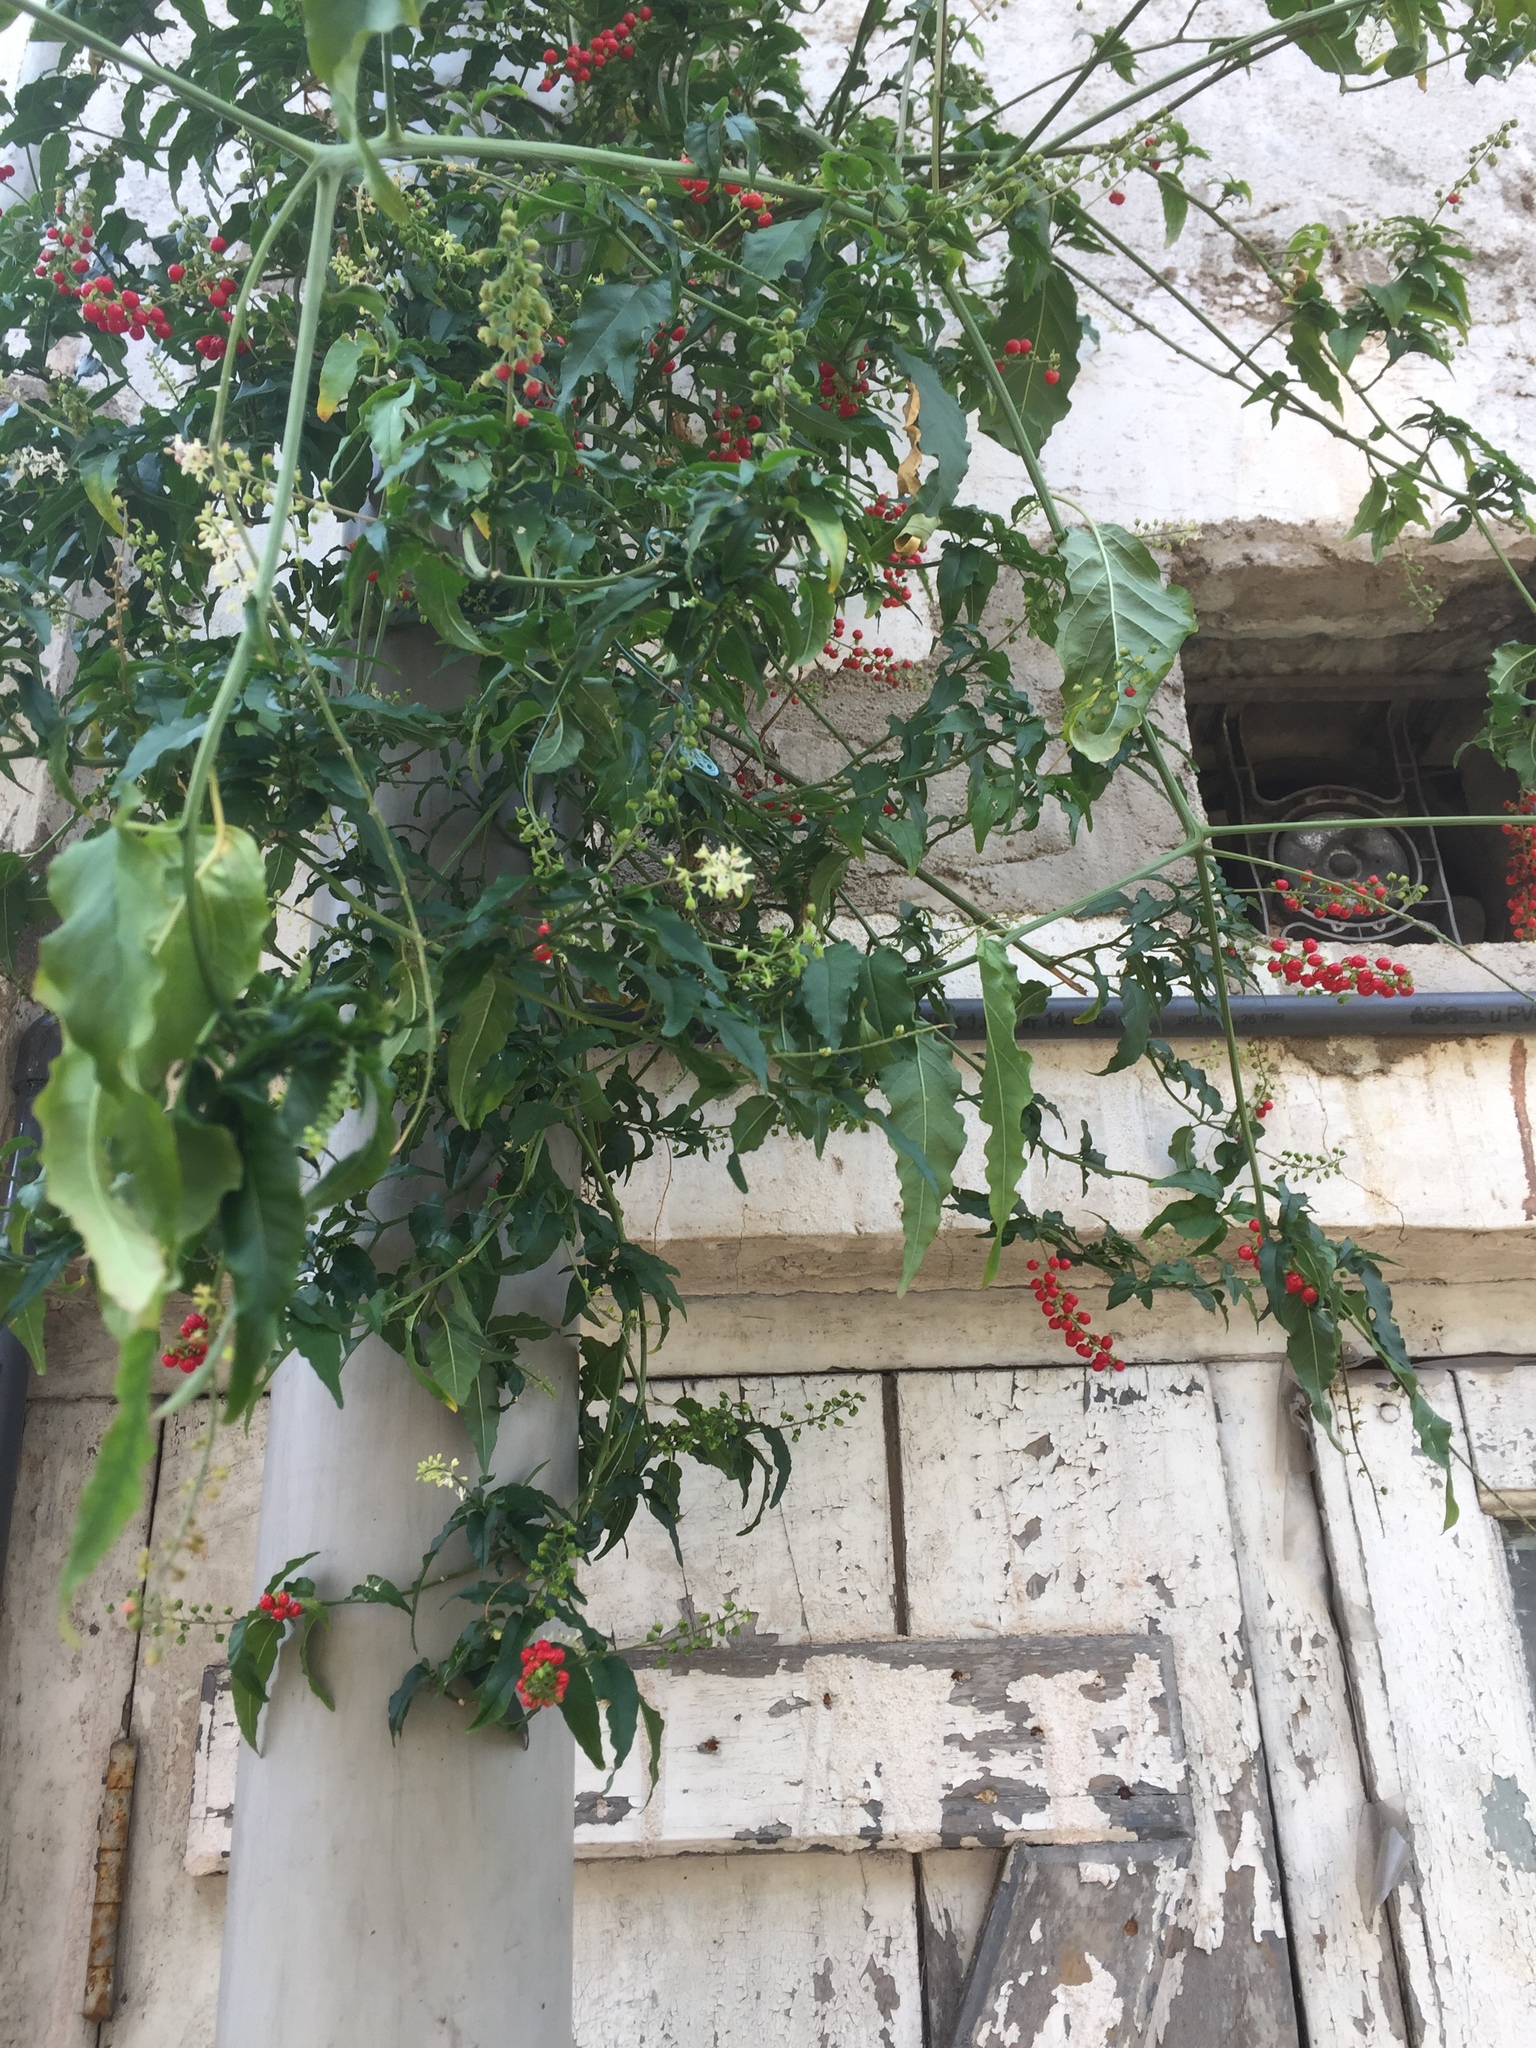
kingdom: Plantae
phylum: Tracheophyta
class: Magnoliopsida
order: Caryophyllales
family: Phytolaccaceae
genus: Rivina
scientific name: Rivina humilis
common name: Rougeplant
